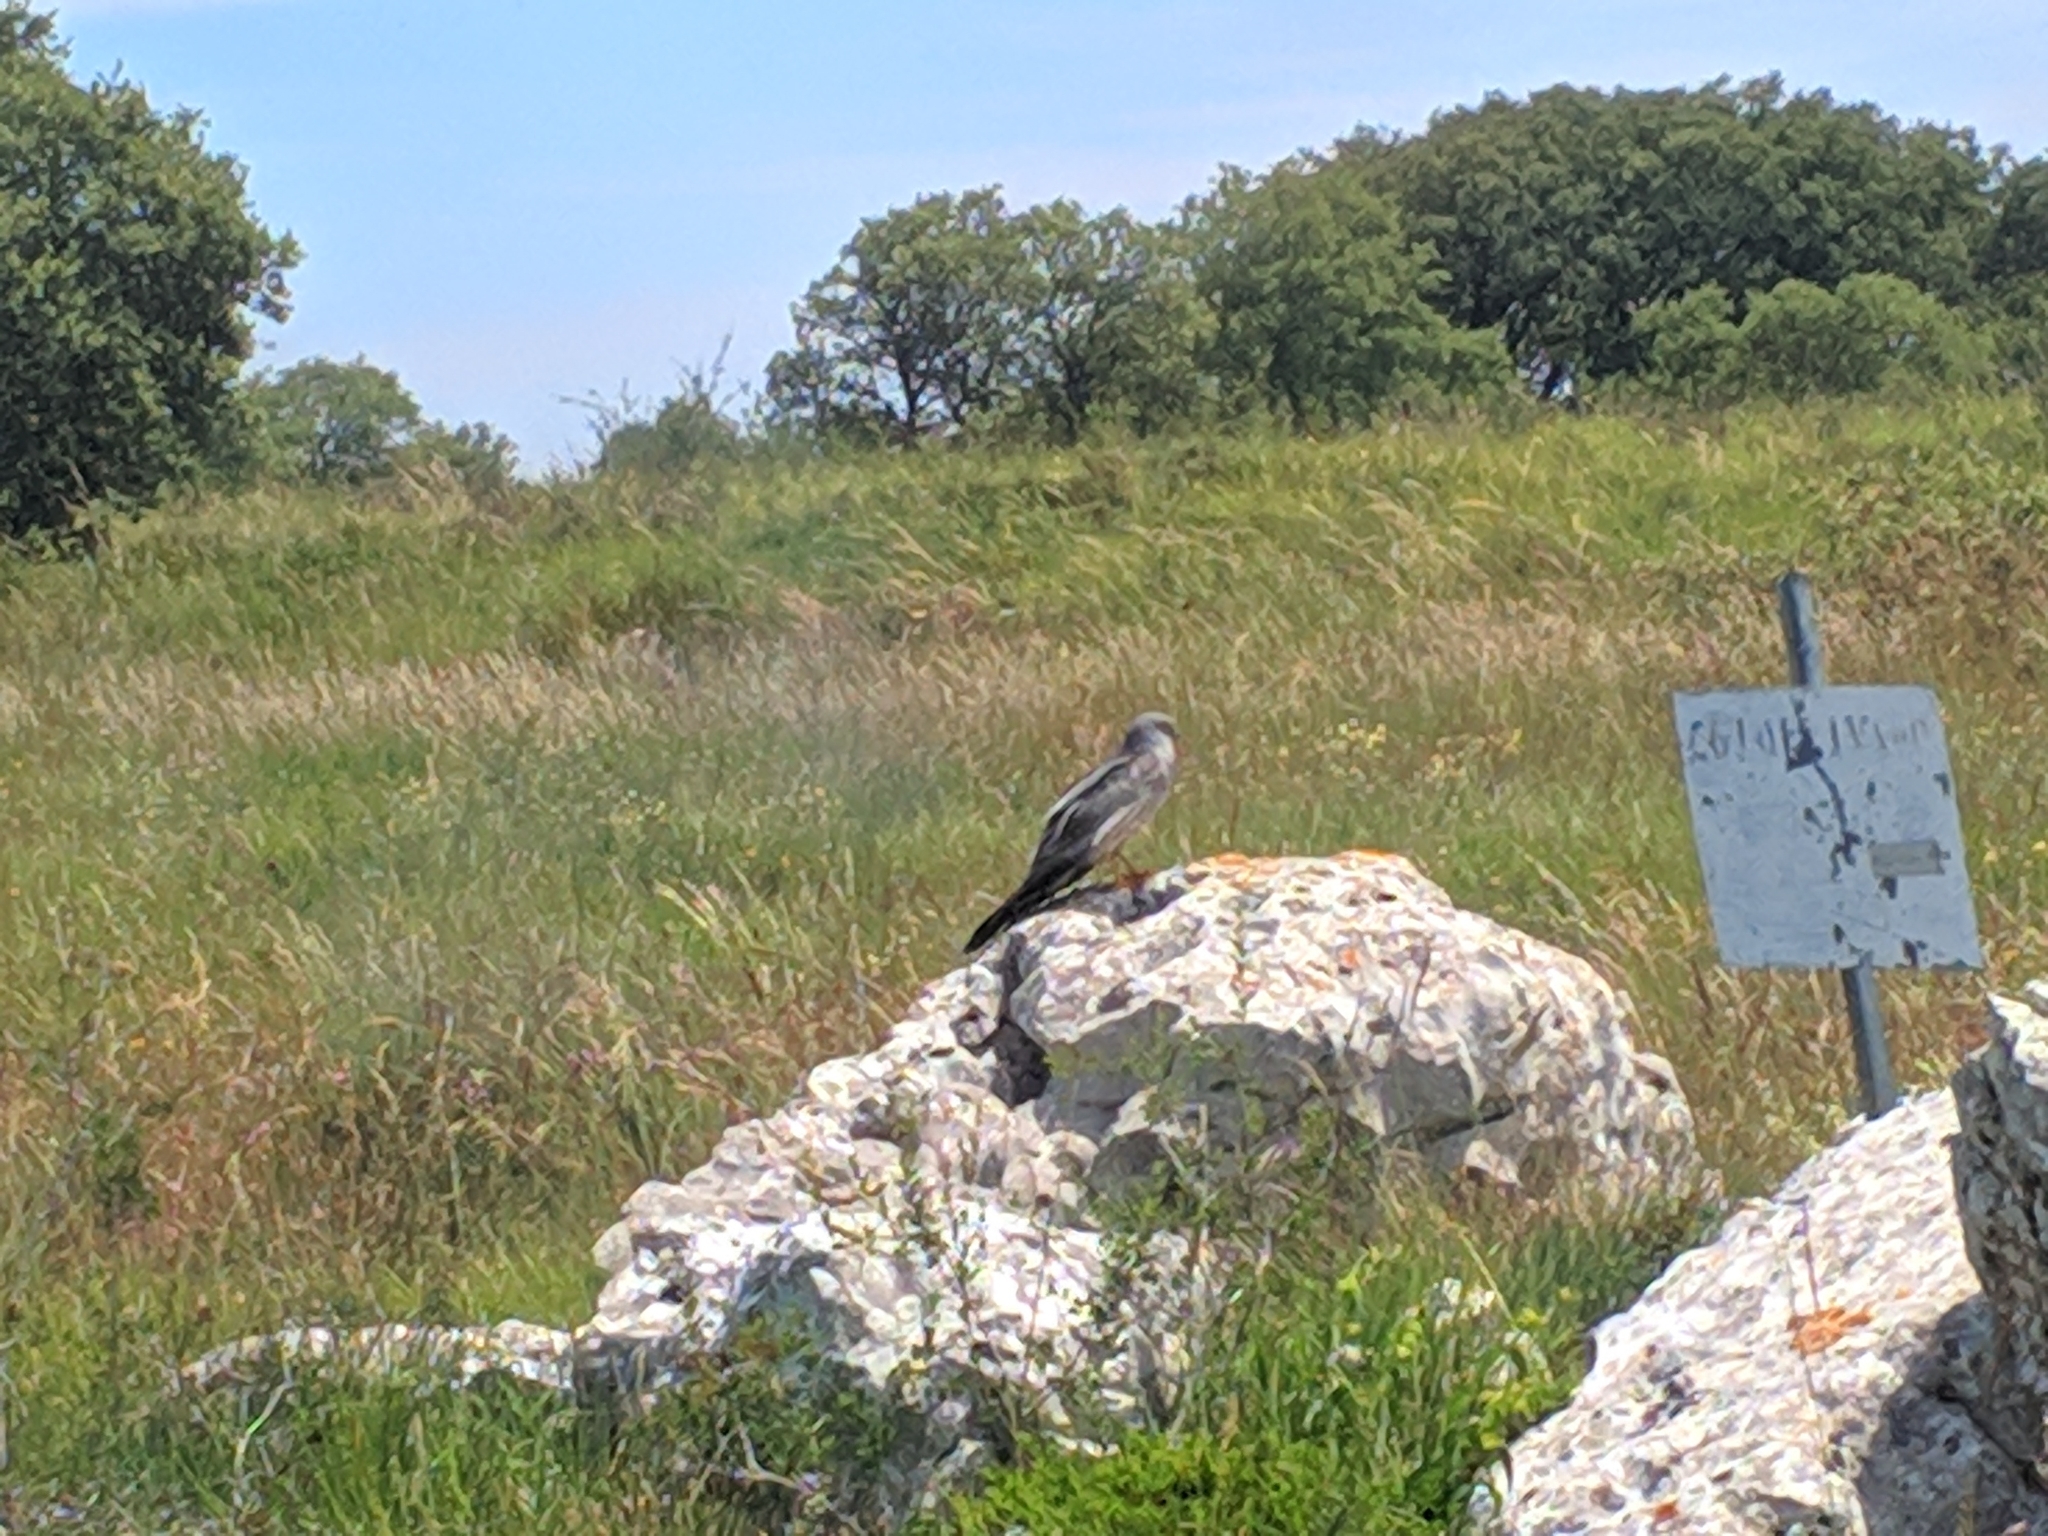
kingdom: Animalia
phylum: Chordata
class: Aves
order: Accipitriformes
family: Accipitridae
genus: Circus
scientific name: Circus pygargus
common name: Montagu's harrier
